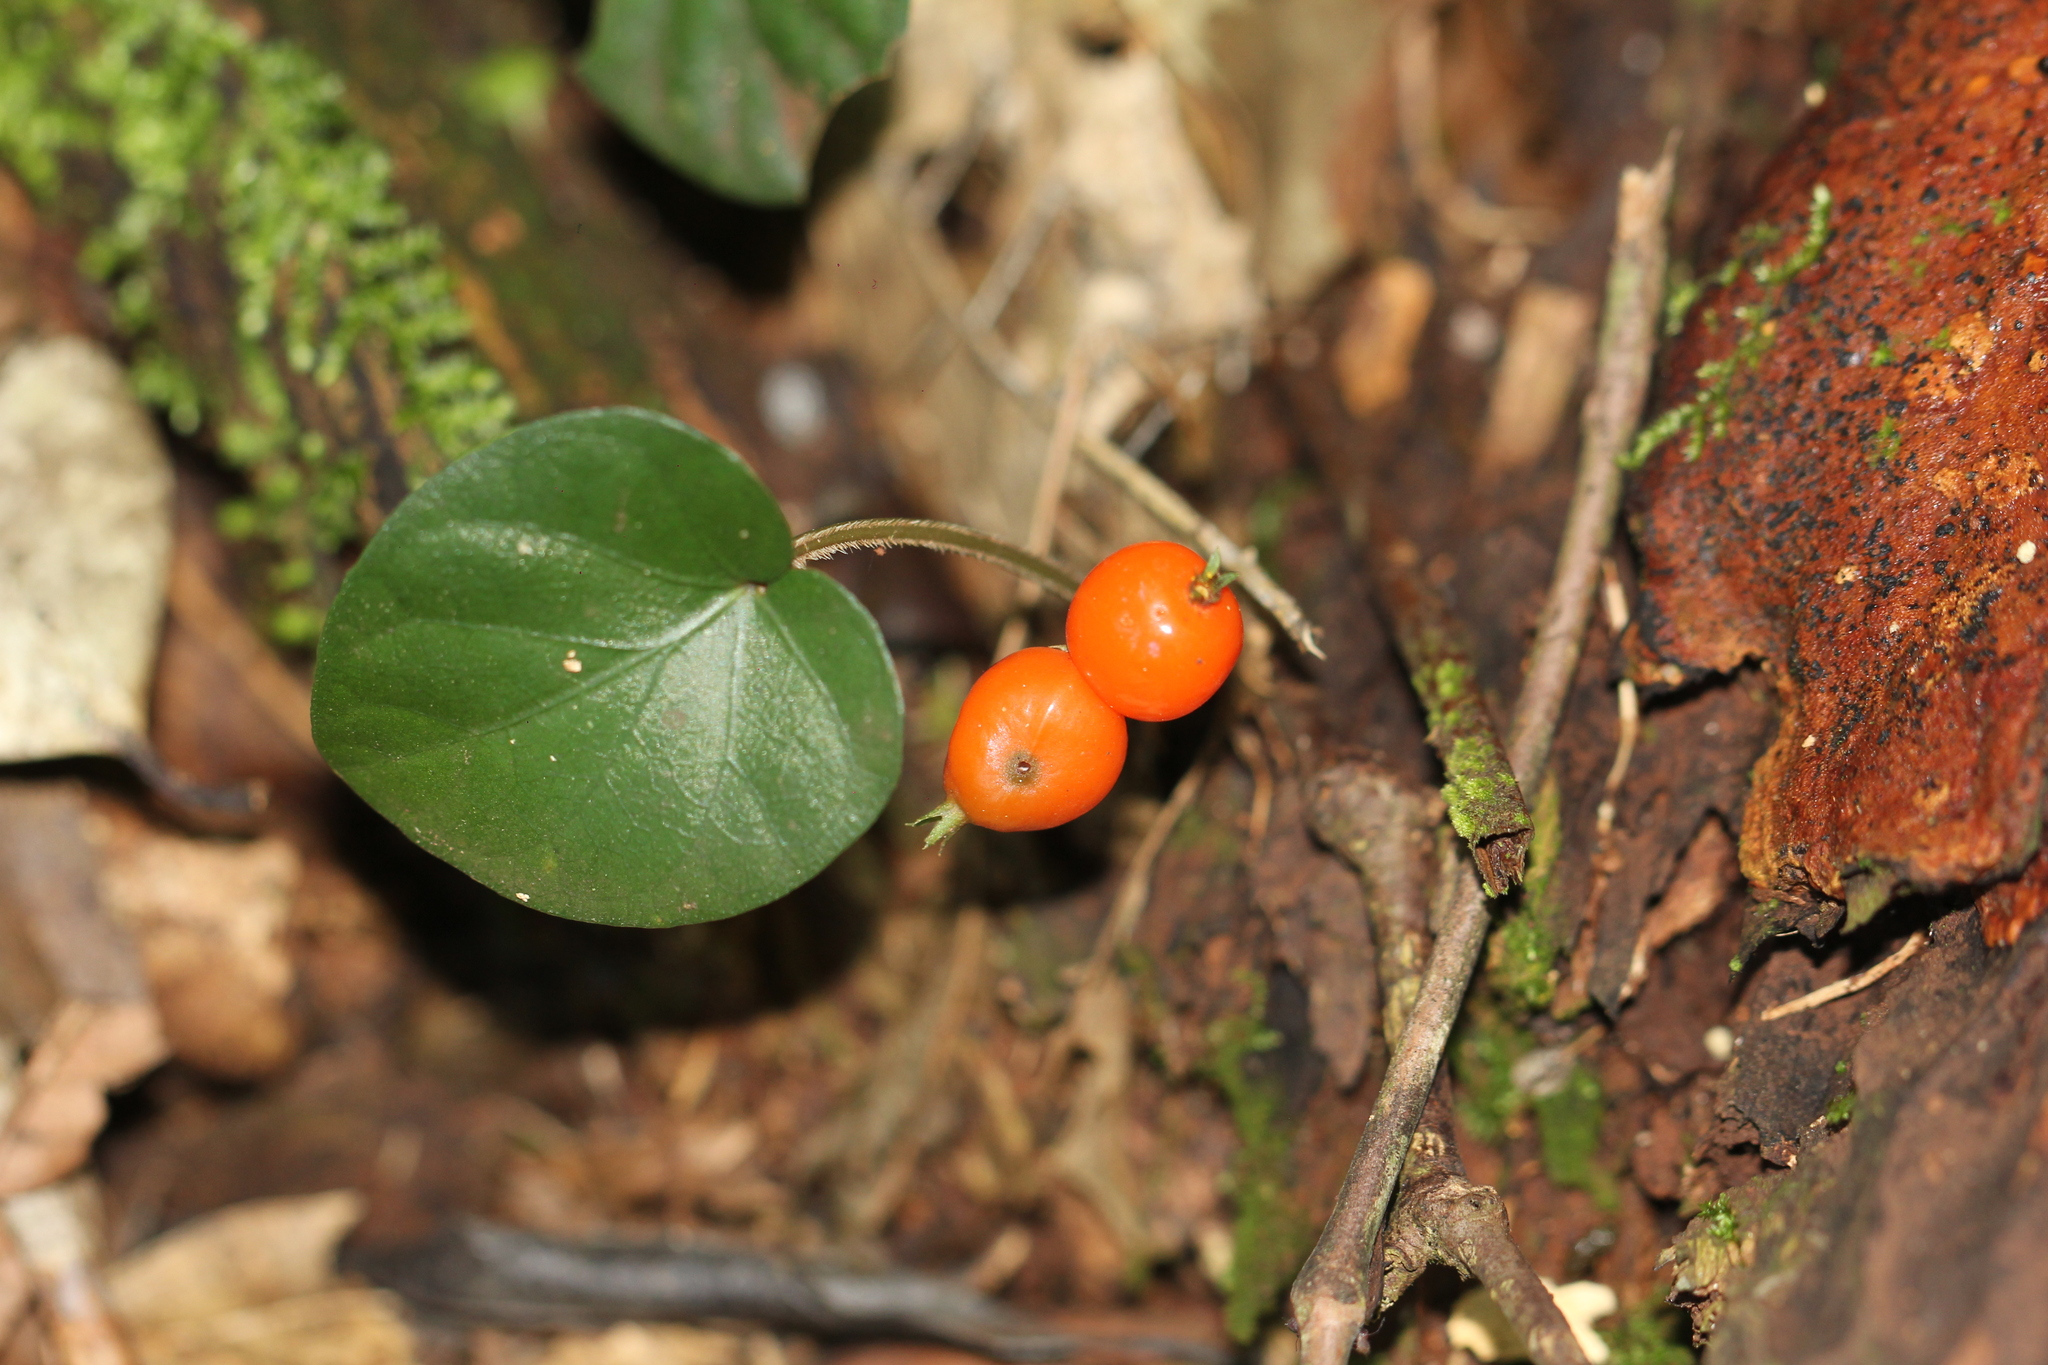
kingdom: Plantae
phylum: Tracheophyta
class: Magnoliopsida
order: Gentianales
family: Rubiaceae
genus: Geophila
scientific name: Geophila repens
